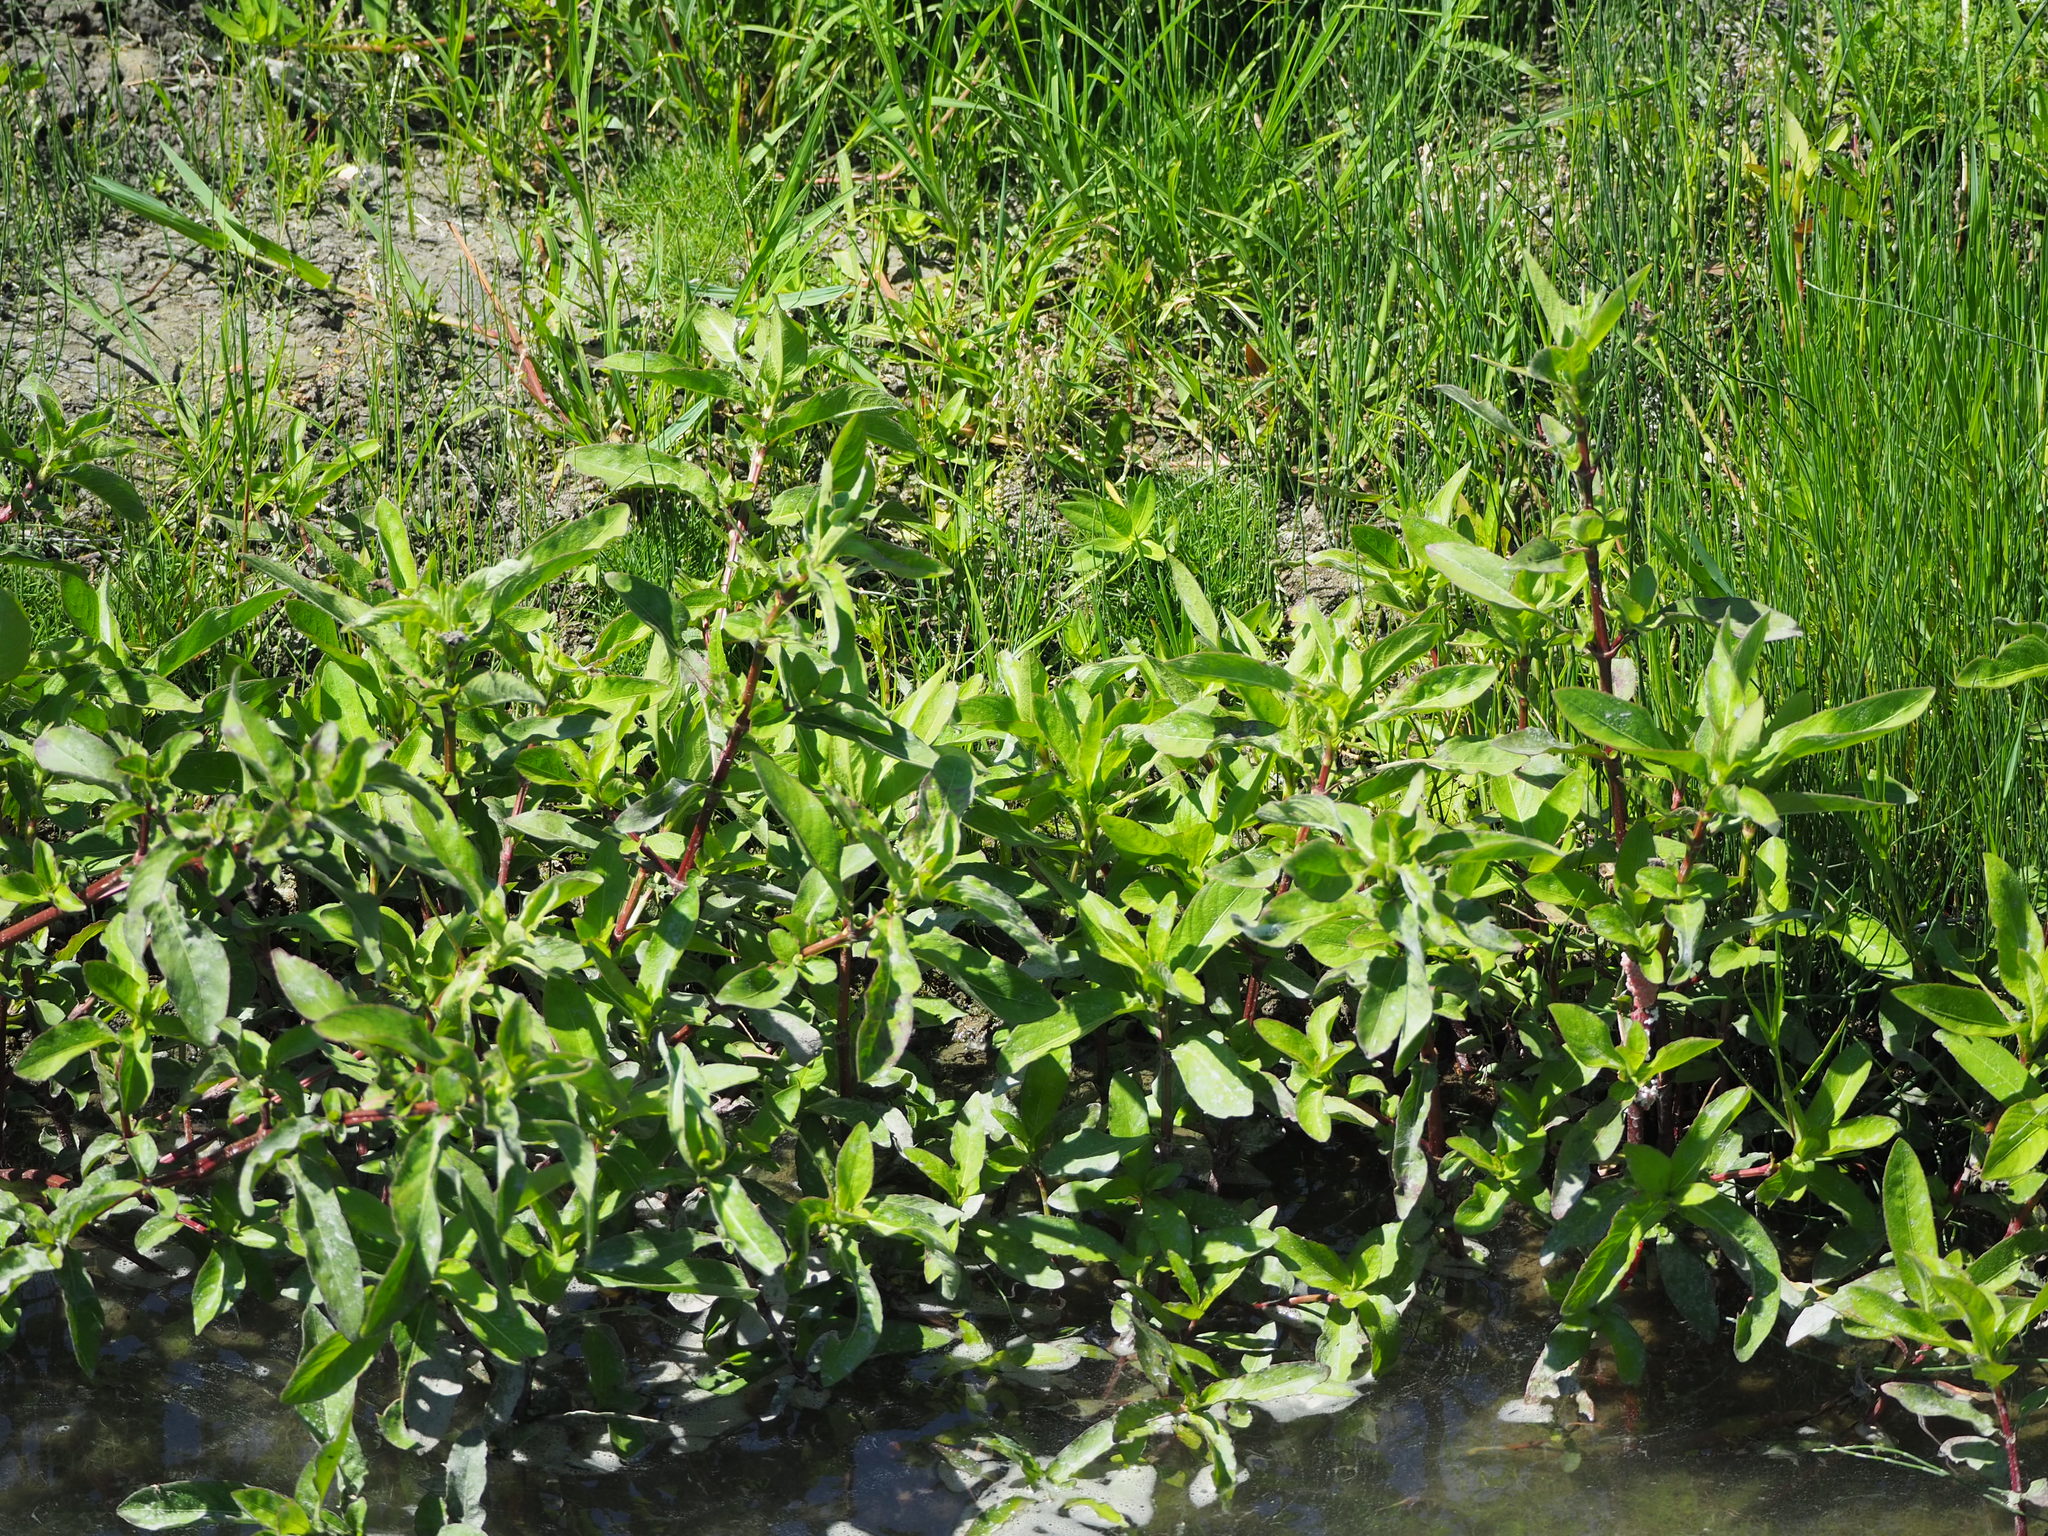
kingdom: Plantae
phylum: Tracheophyta
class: Magnoliopsida
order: Lamiales
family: Acanthaceae
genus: Hygrophila
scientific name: Hygrophila pogonocalyx
